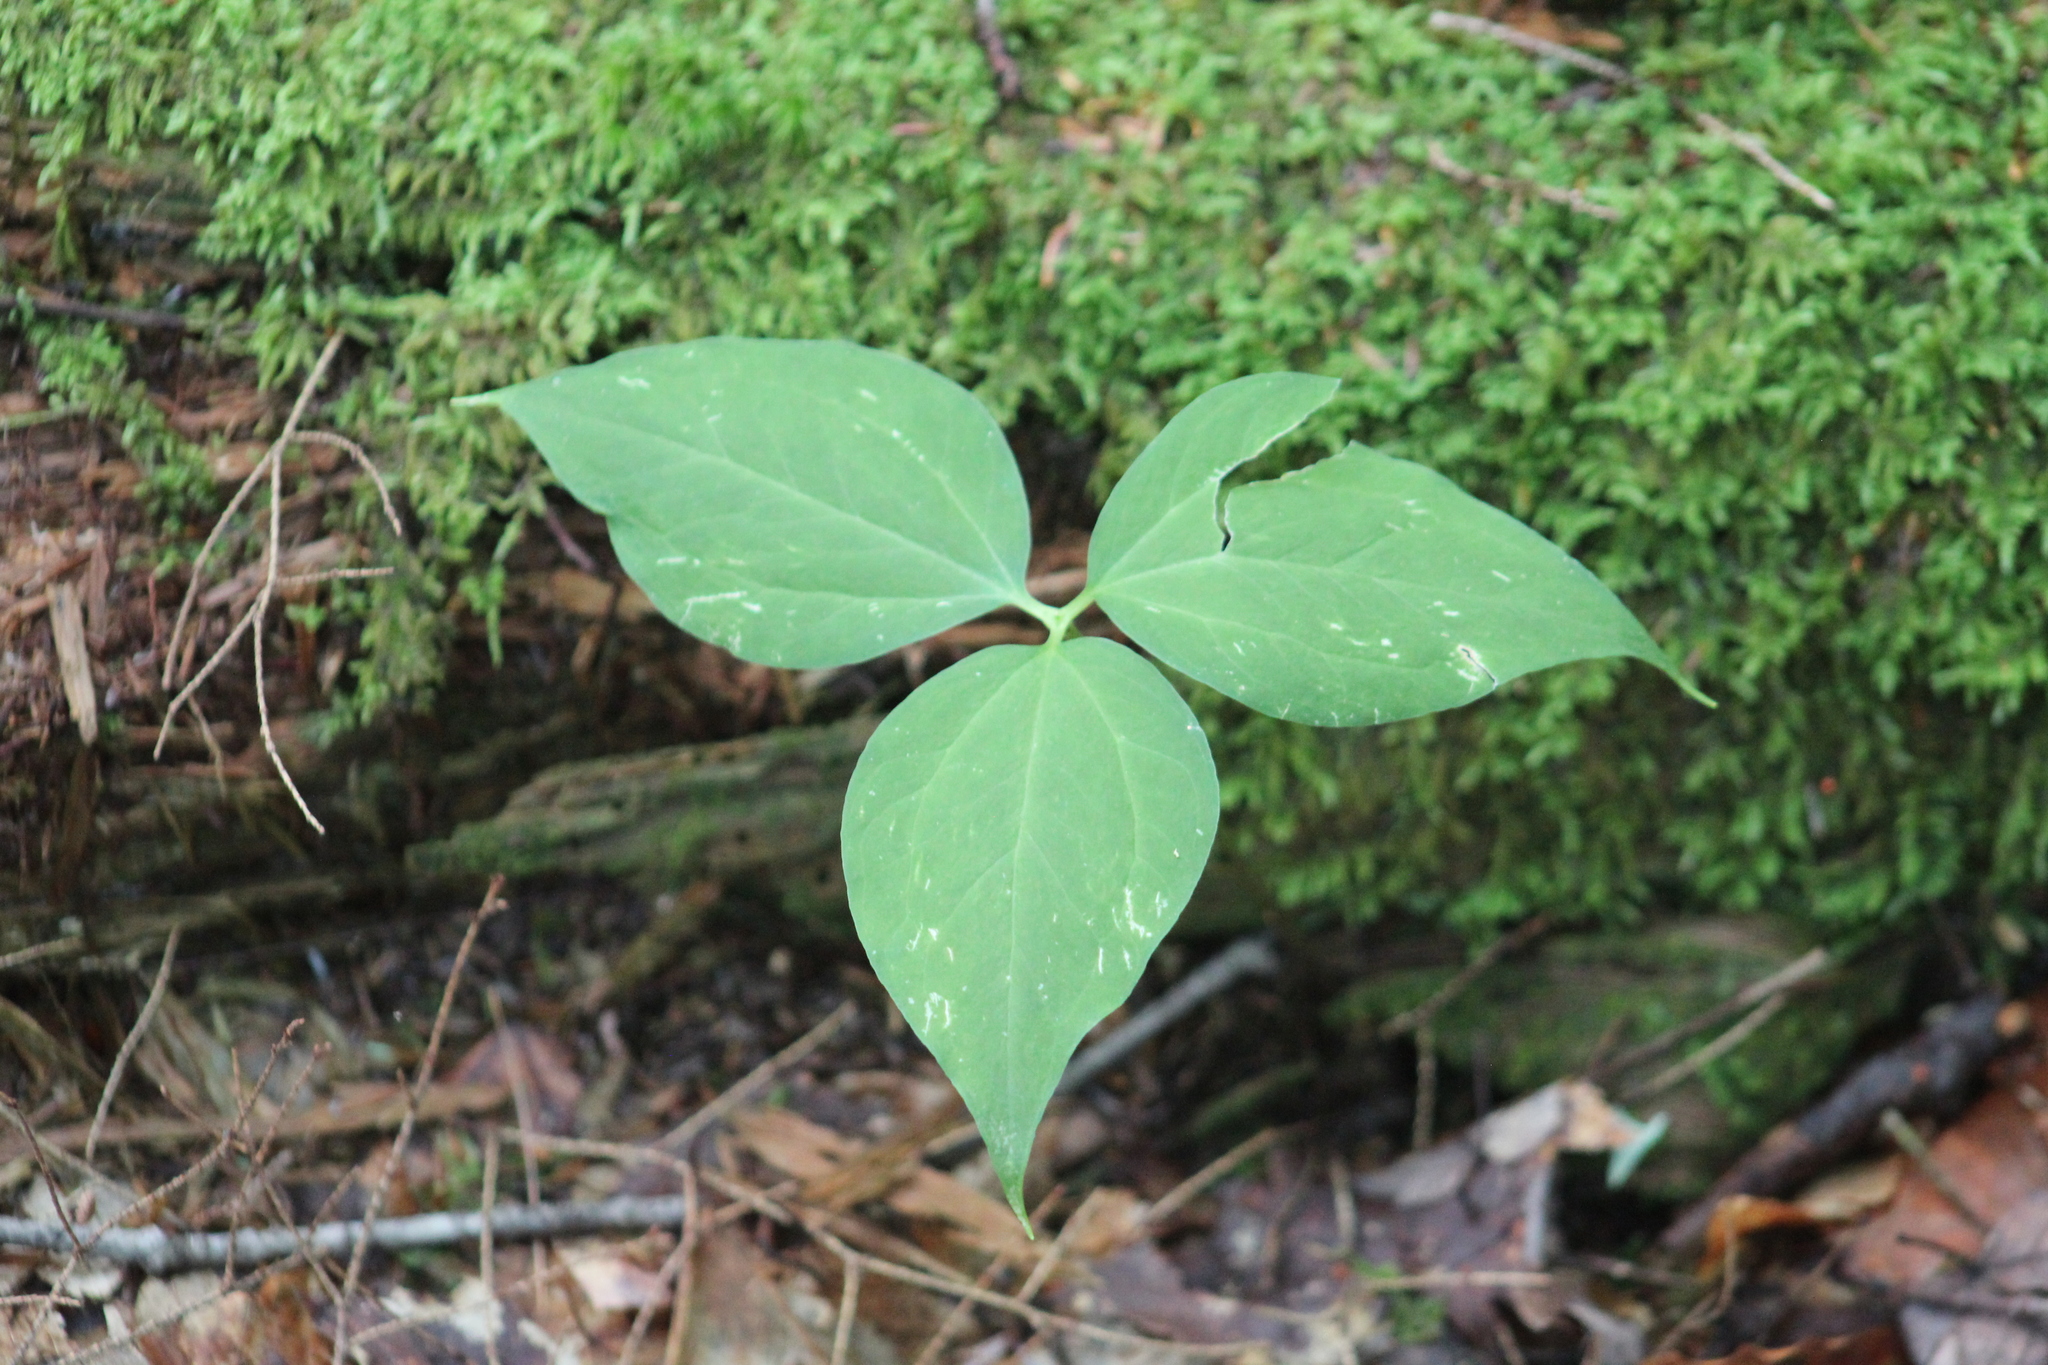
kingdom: Plantae
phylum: Tracheophyta
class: Liliopsida
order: Liliales
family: Melanthiaceae
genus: Trillium
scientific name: Trillium undulatum
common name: Paint trillium
